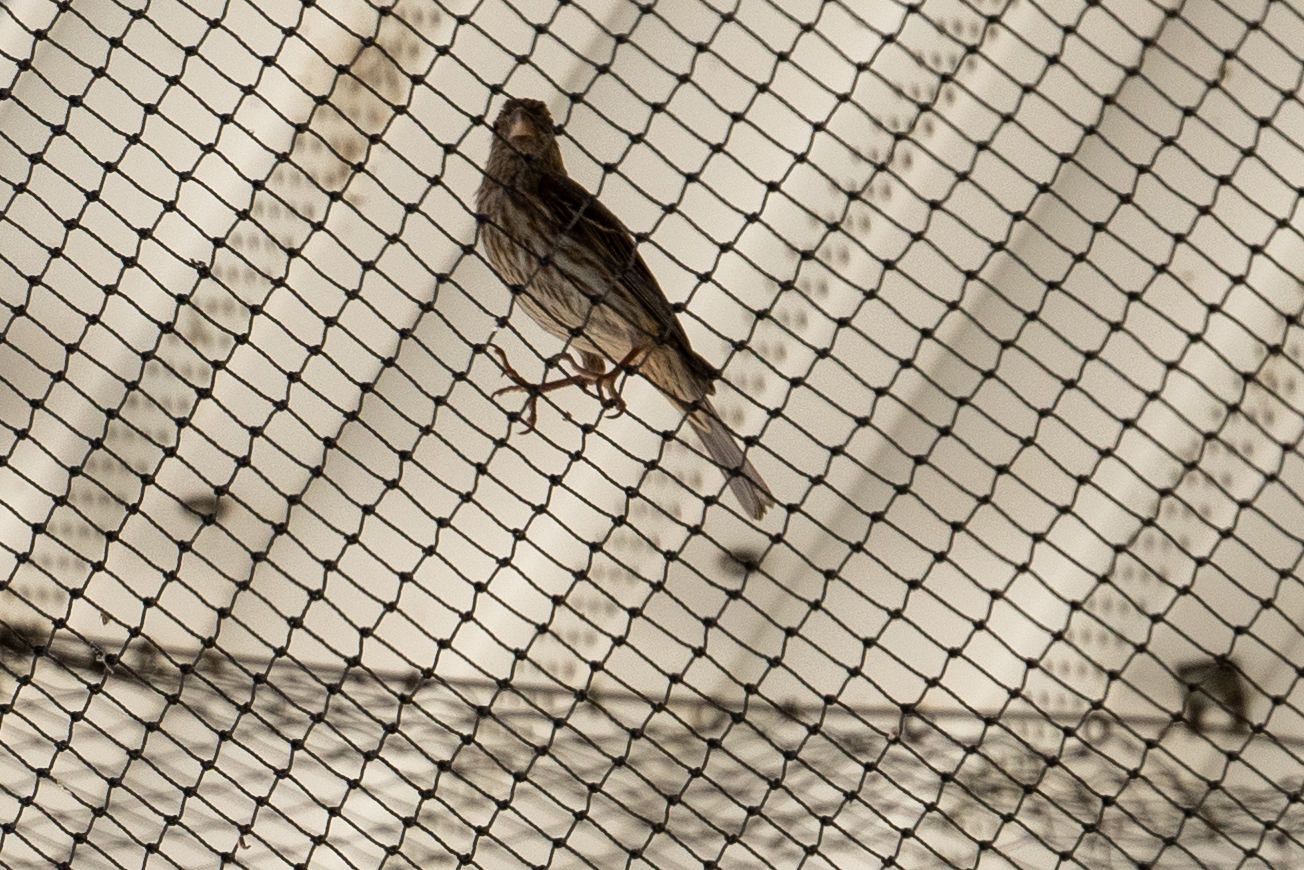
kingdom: Animalia
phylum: Chordata
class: Aves
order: Passeriformes
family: Fringillidae
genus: Haemorhous
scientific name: Haemorhous mexicanus
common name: House finch
